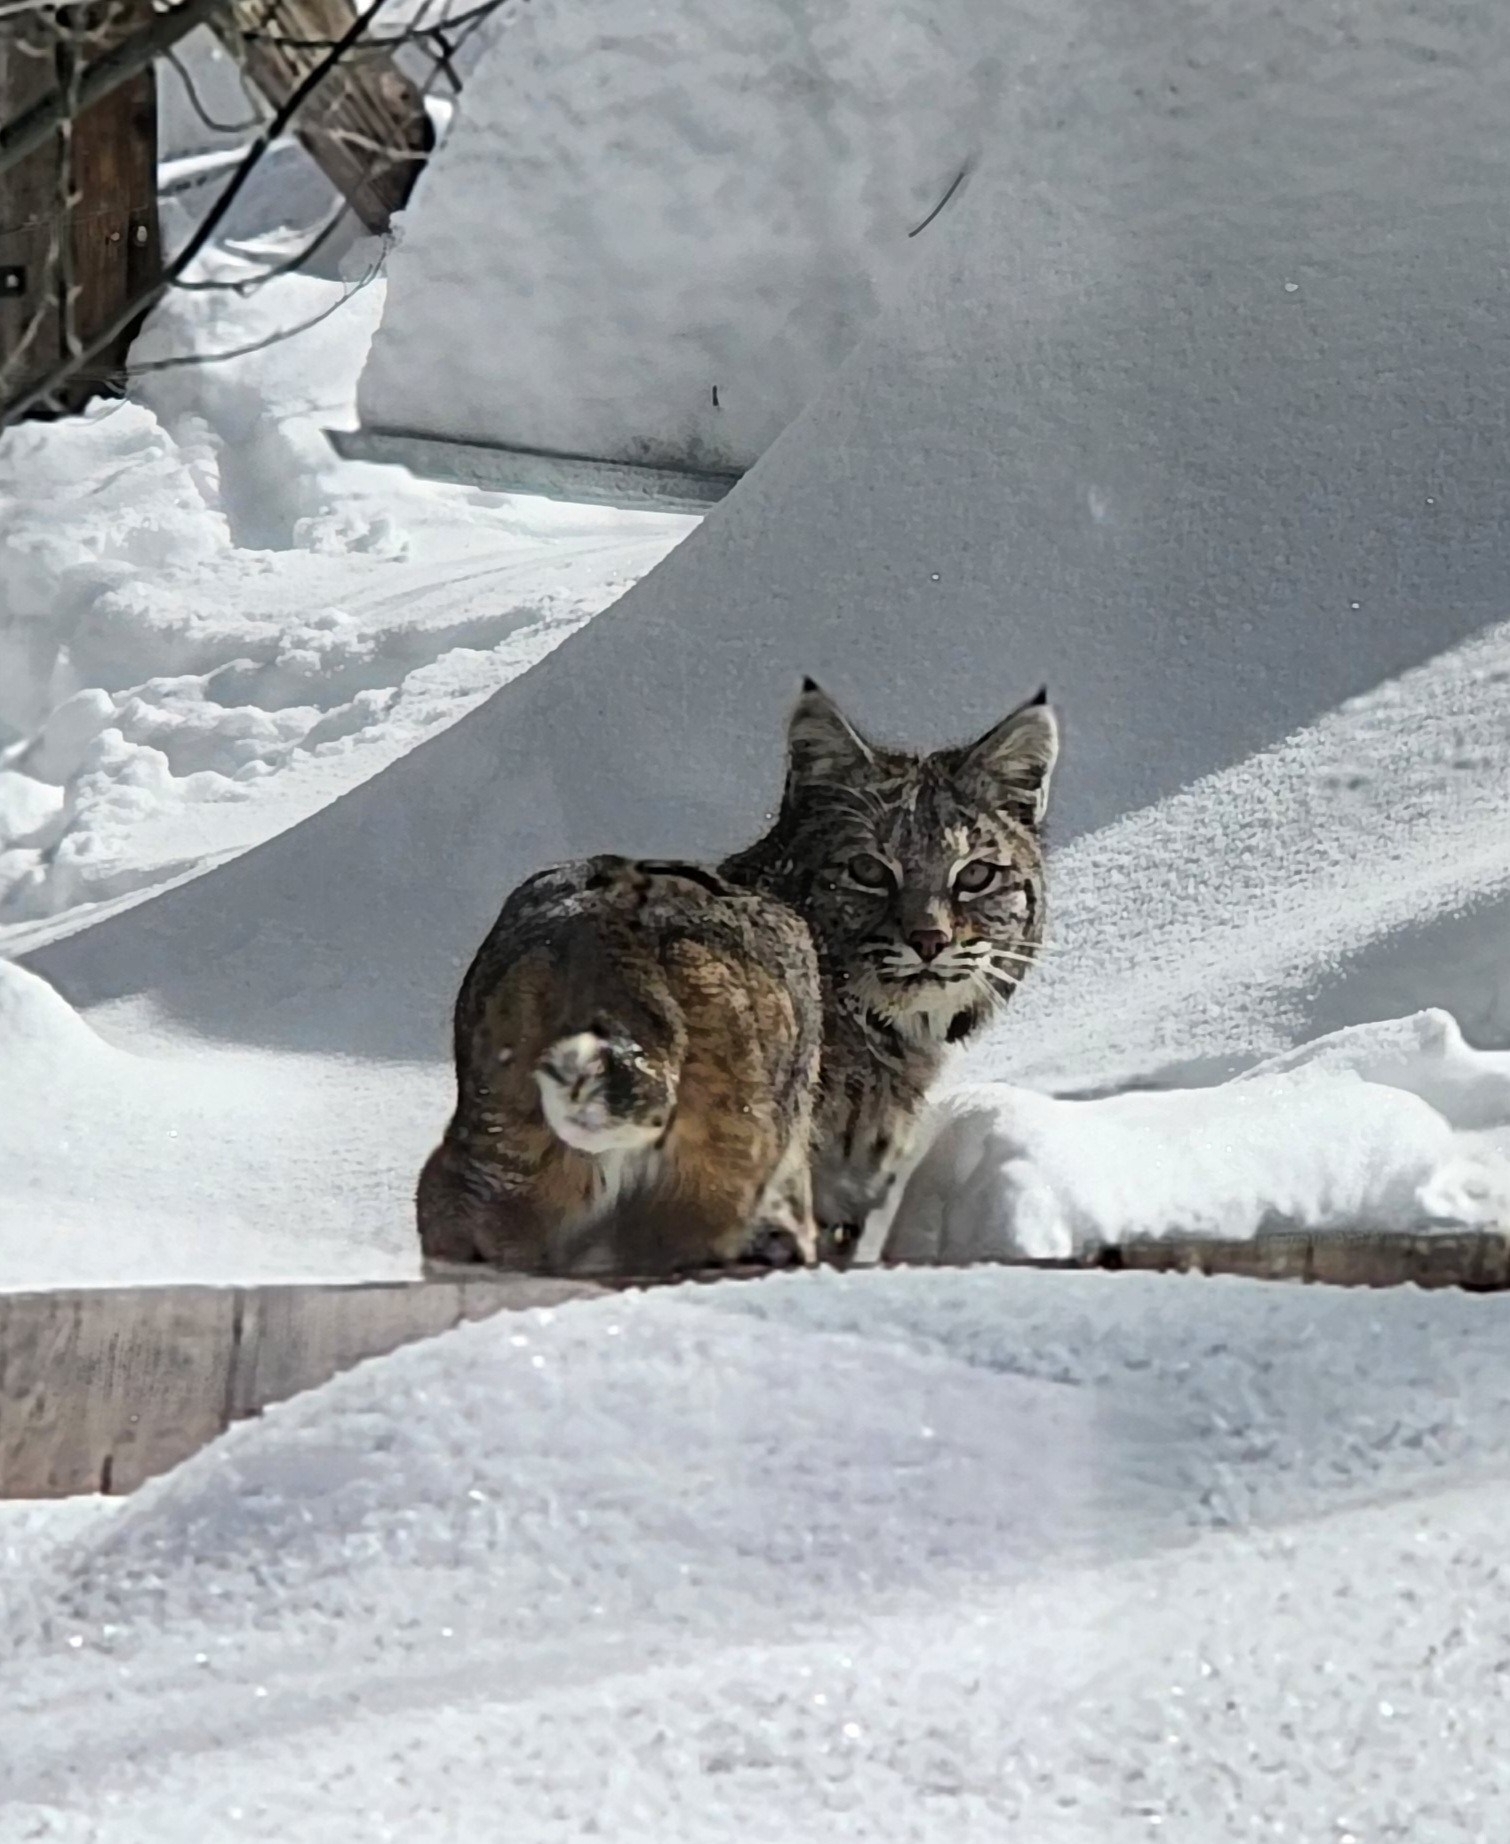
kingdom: Animalia
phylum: Chordata
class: Mammalia
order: Carnivora
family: Felidae
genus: Lynx
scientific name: Lynx rufus
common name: Bobcat
